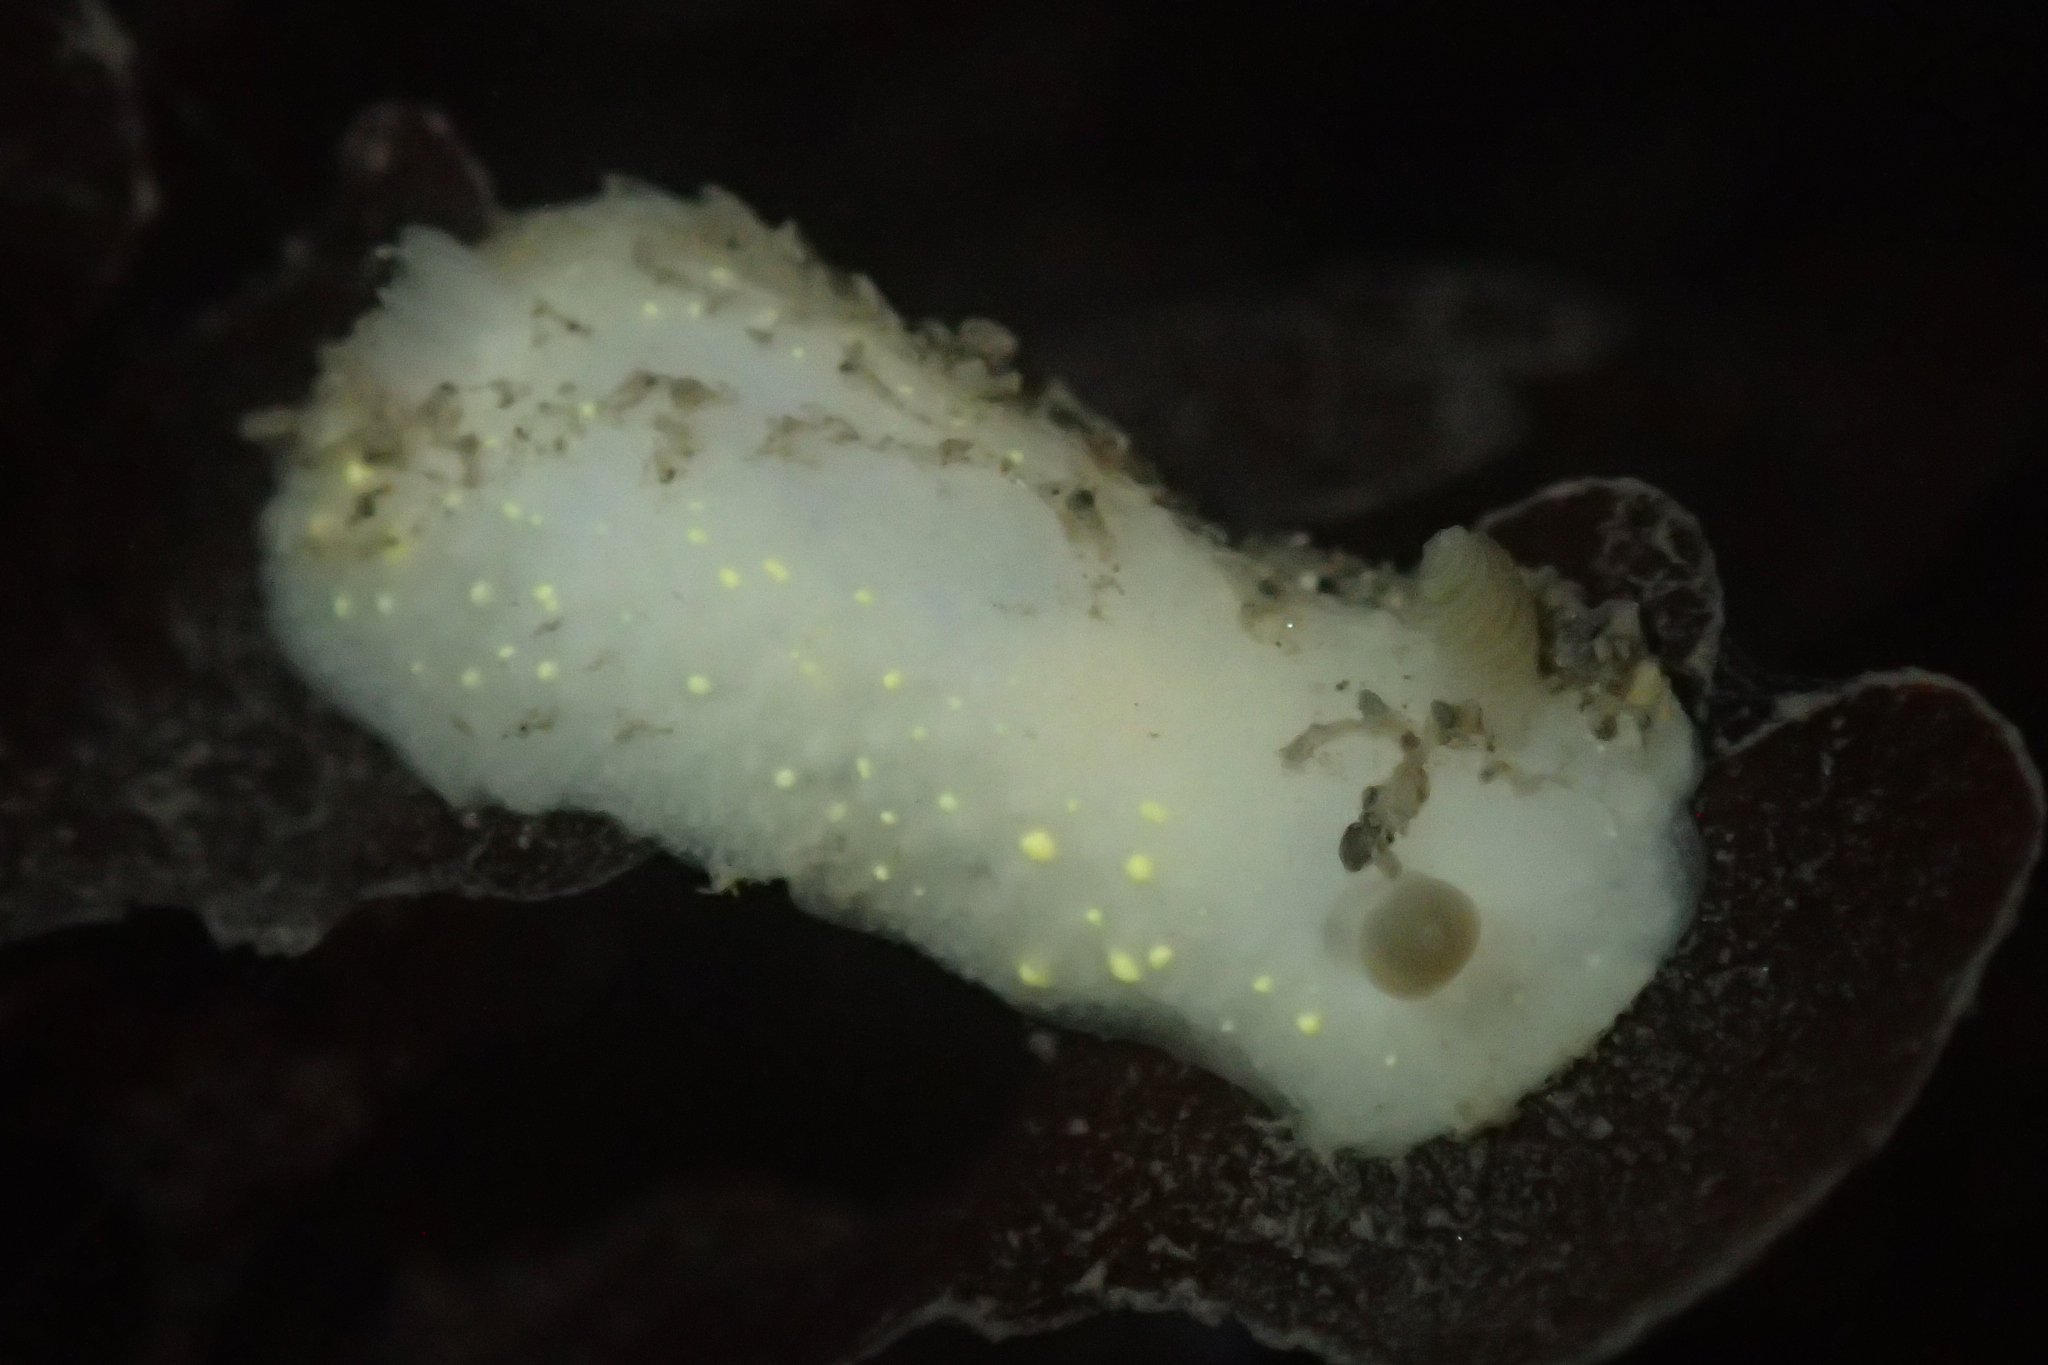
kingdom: Animalia
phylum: Mollusca
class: Gastropoda
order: Nudibranchia
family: Cadlinidae
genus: Cadlina
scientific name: Cadlina modesta
